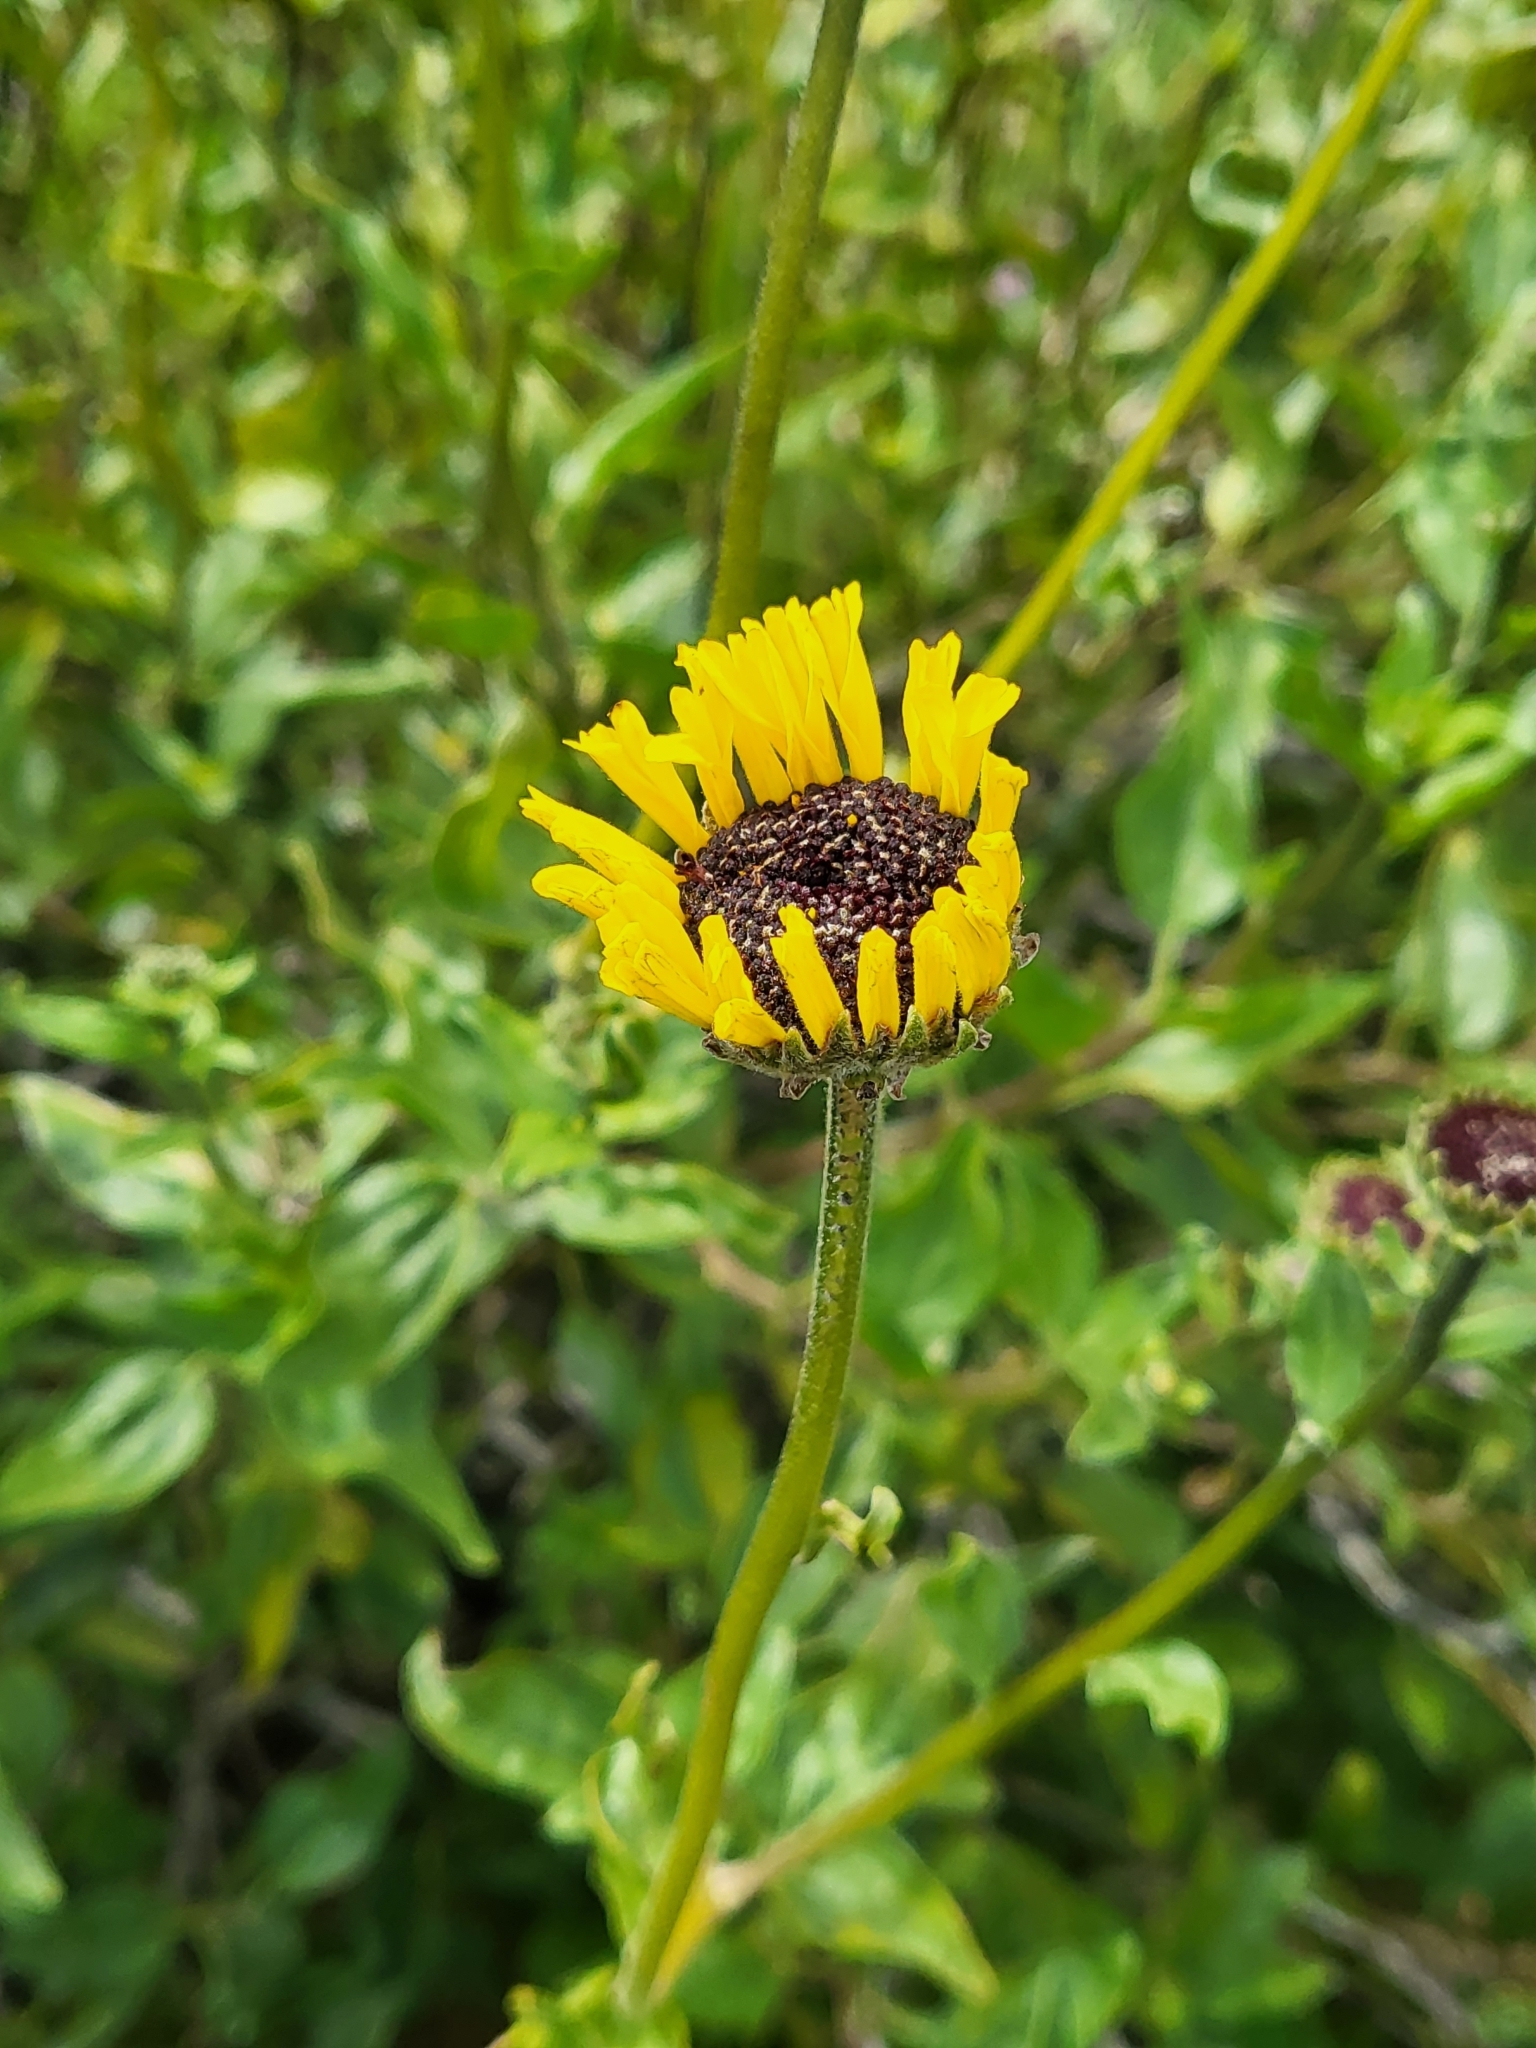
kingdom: Plantae
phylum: Tracheophyta
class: Magnoliopsida
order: Asterales
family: Asteraceae
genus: Encelia
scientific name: Encelia californica
